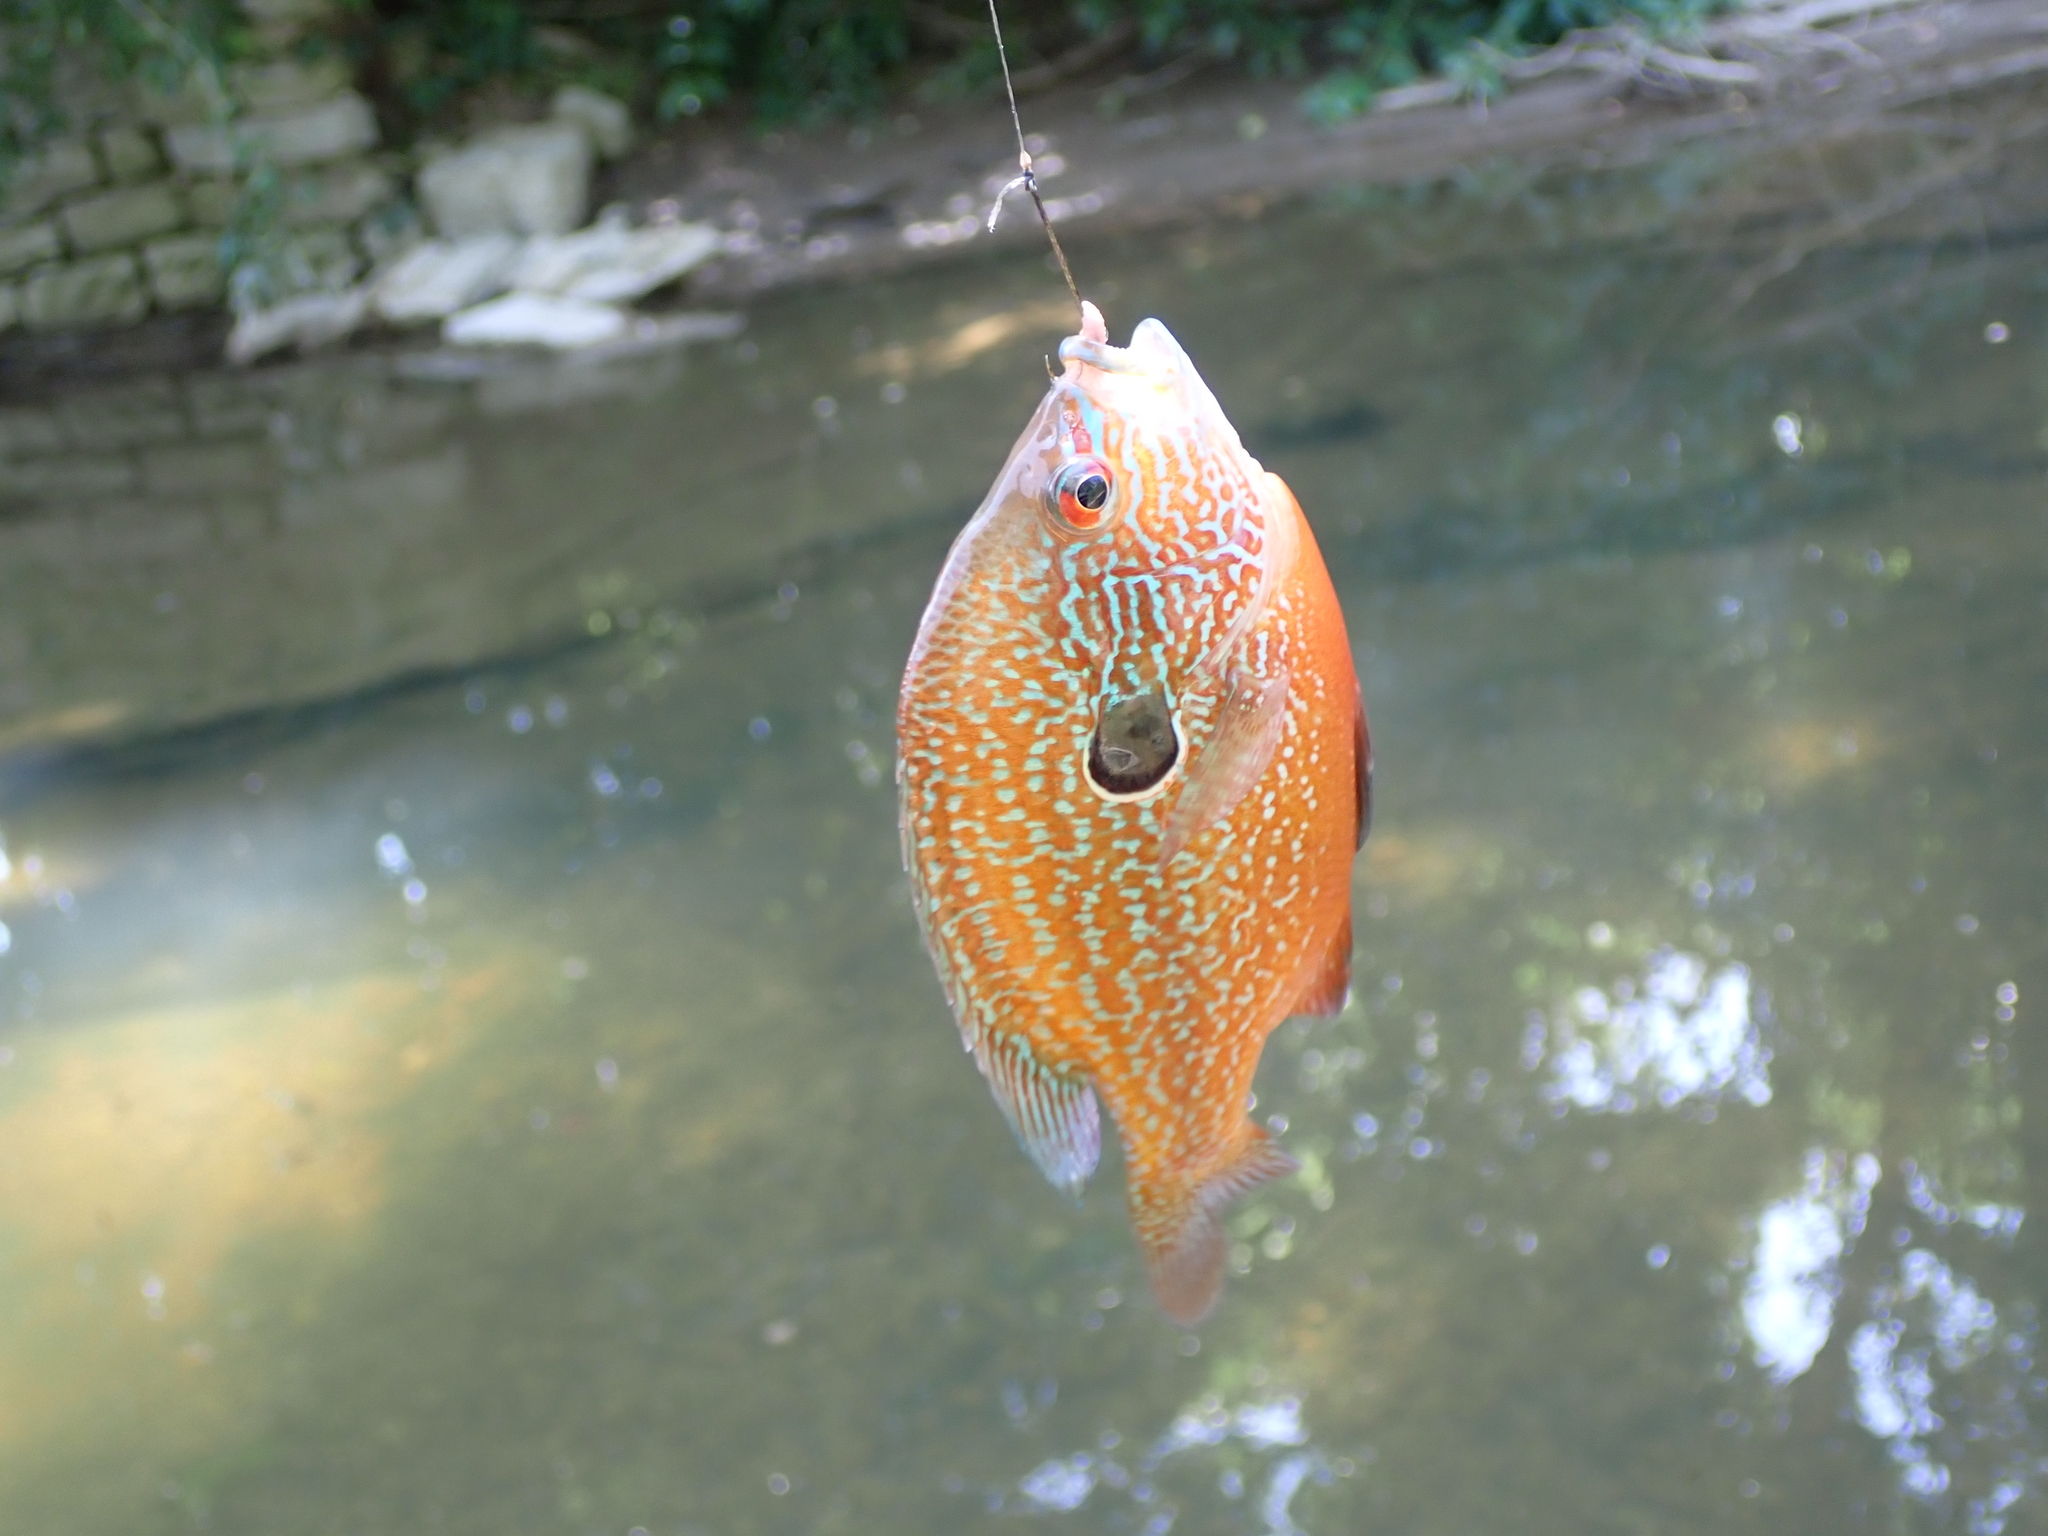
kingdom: Animalia
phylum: Chordata
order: Perciformes
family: Centrarchidae
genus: Lepomis
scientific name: Lepomis megalotis
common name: Longear sunfish
